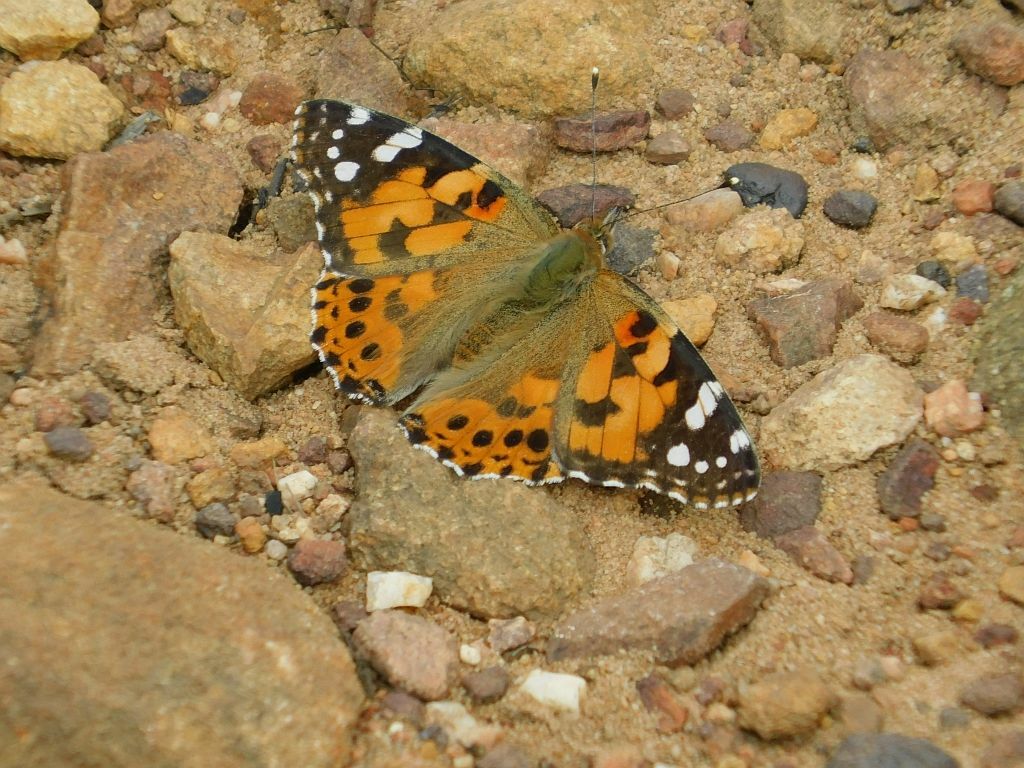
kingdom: Animalia
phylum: Arthropoda
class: Insecta
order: Lepidoptera
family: Nymphalidae
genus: Vanessa
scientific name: Vanessa cardui
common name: Painted lady
